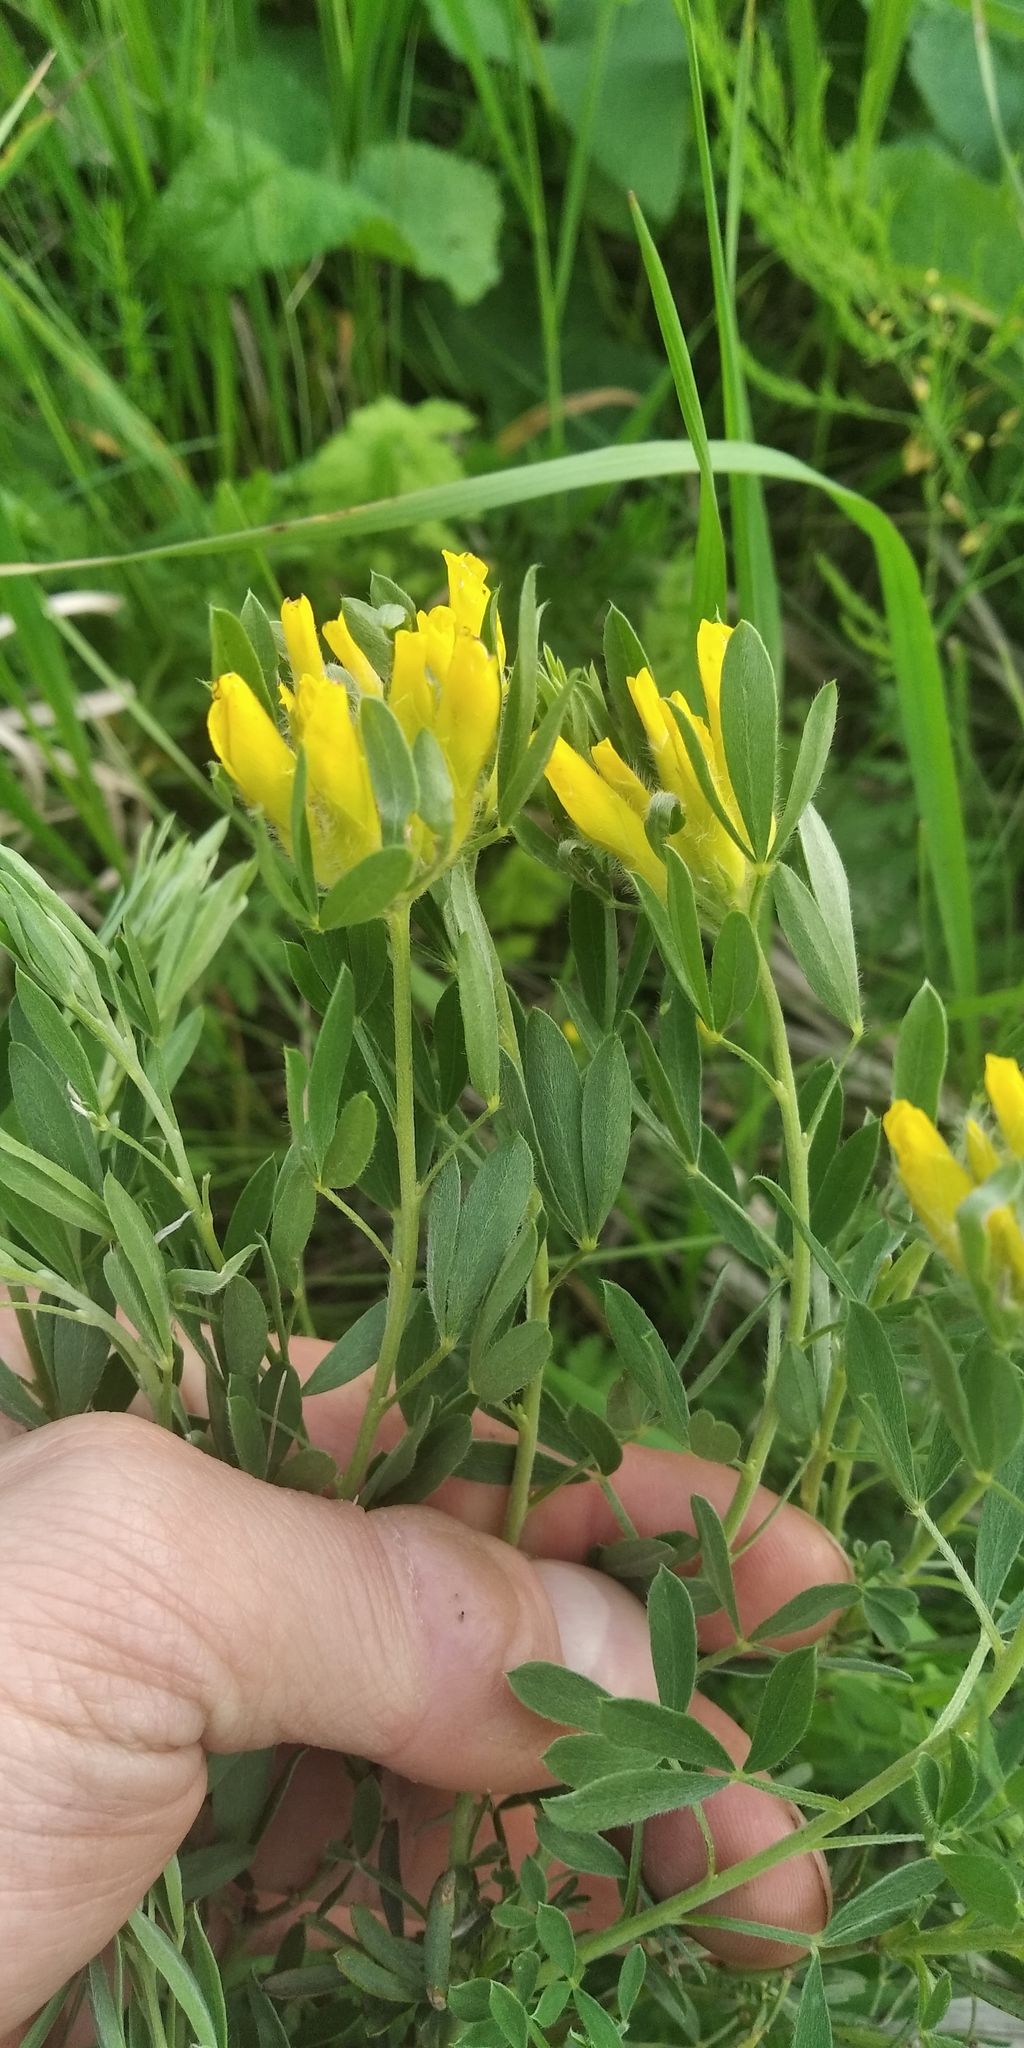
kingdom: Plantae
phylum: Tracheophyta
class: Magnoliopsida
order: Fabales
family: Fabaceae
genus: Chamaecytisus
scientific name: Chamaecytisus austriacus
